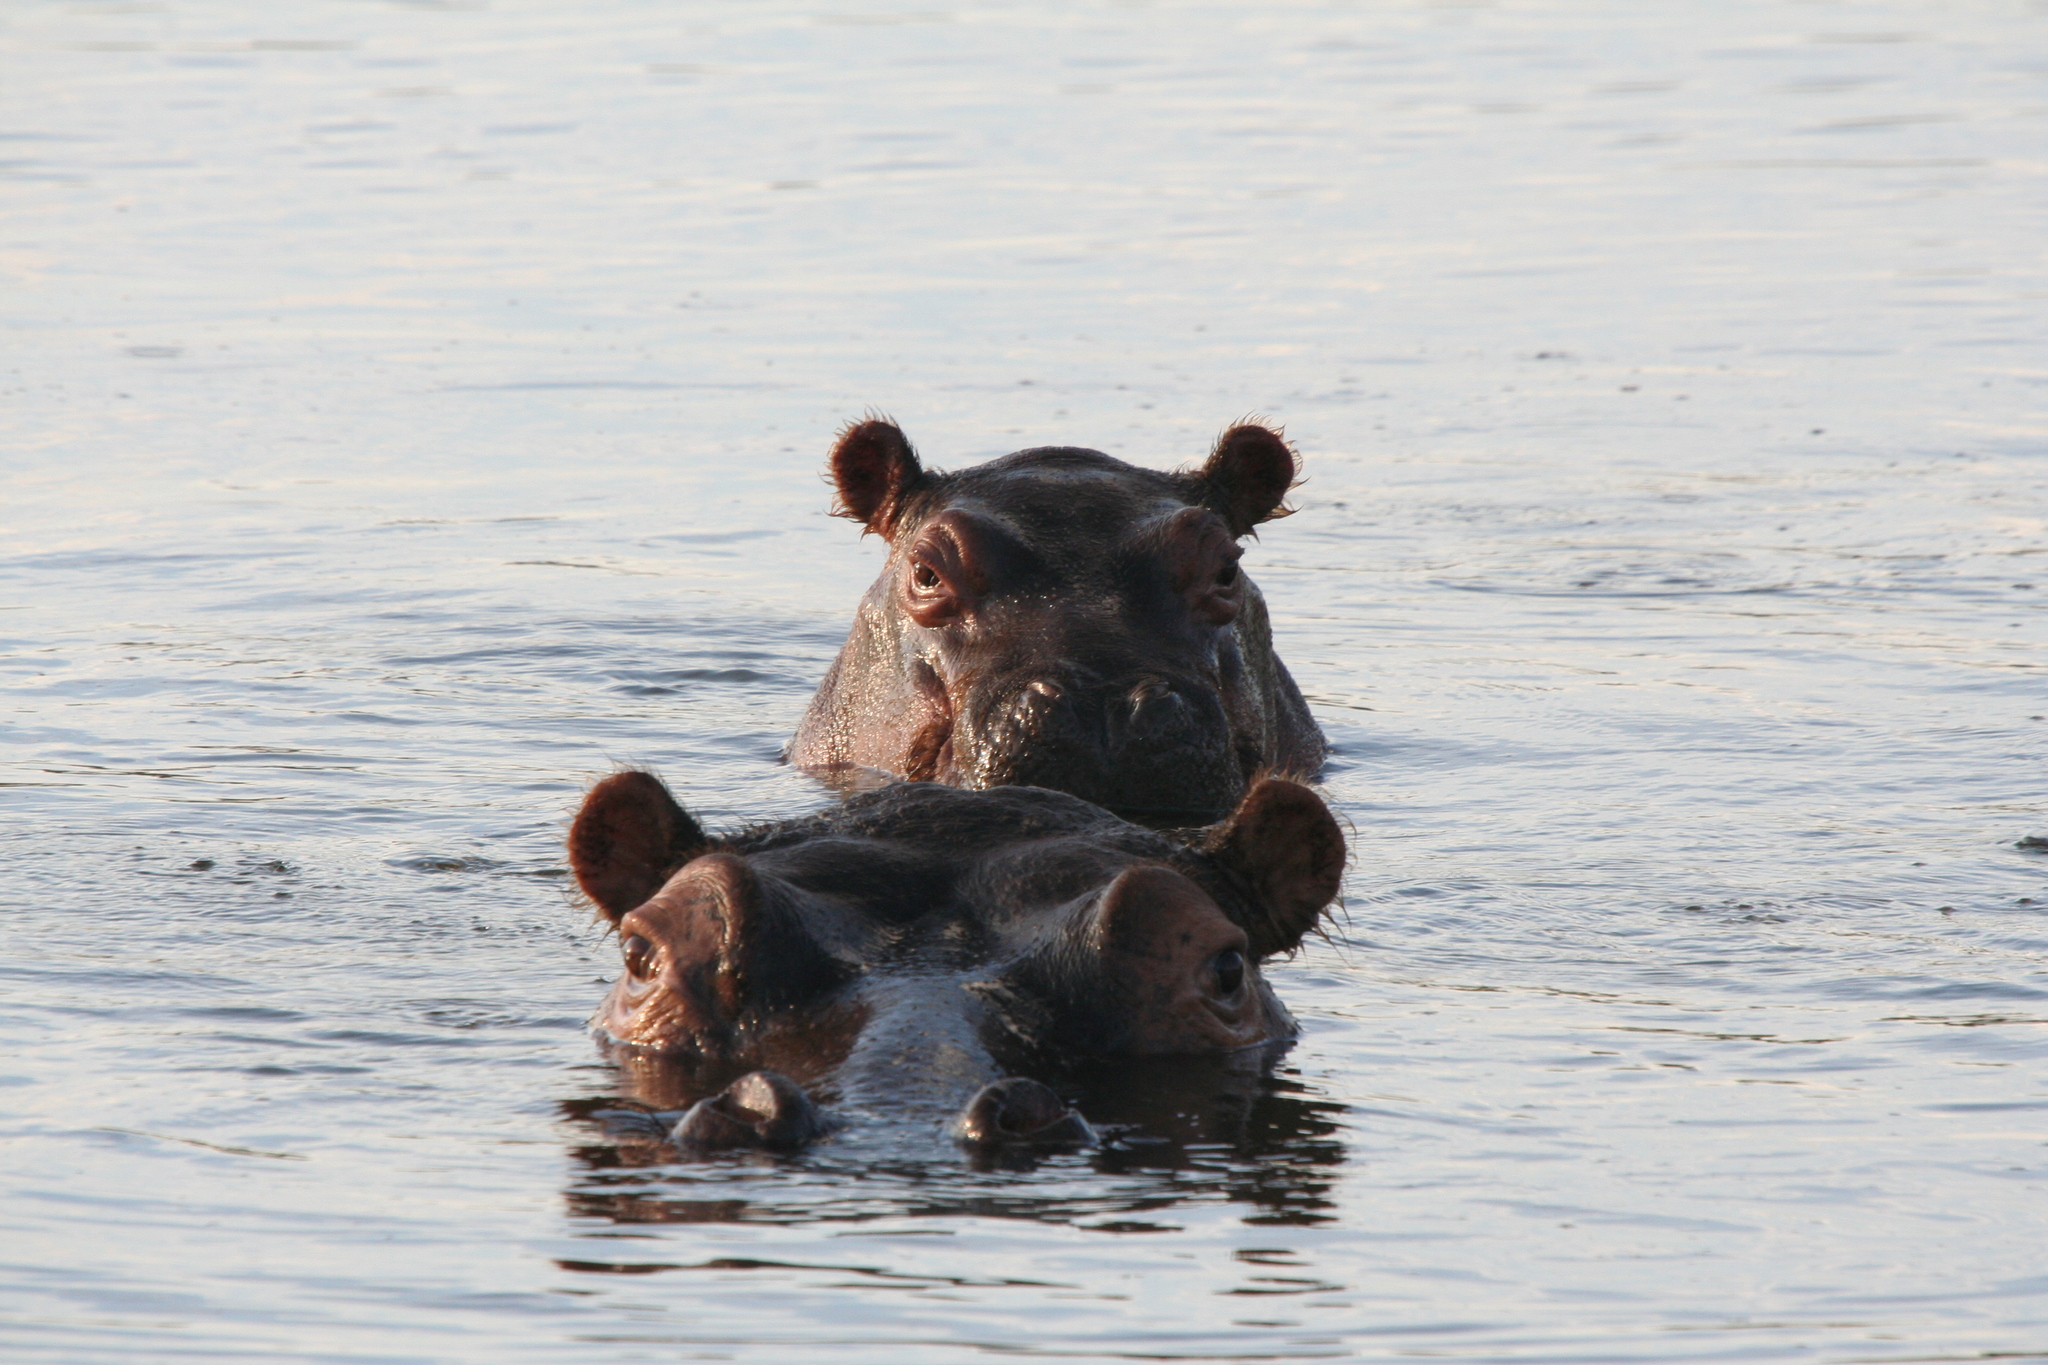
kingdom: Animalia
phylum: Chordata
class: Mammalia
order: Artiodactyla
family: Hippopotamidae
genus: Hippopotamus
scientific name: Hippopotamus amphibius
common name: Common hippopotamus
